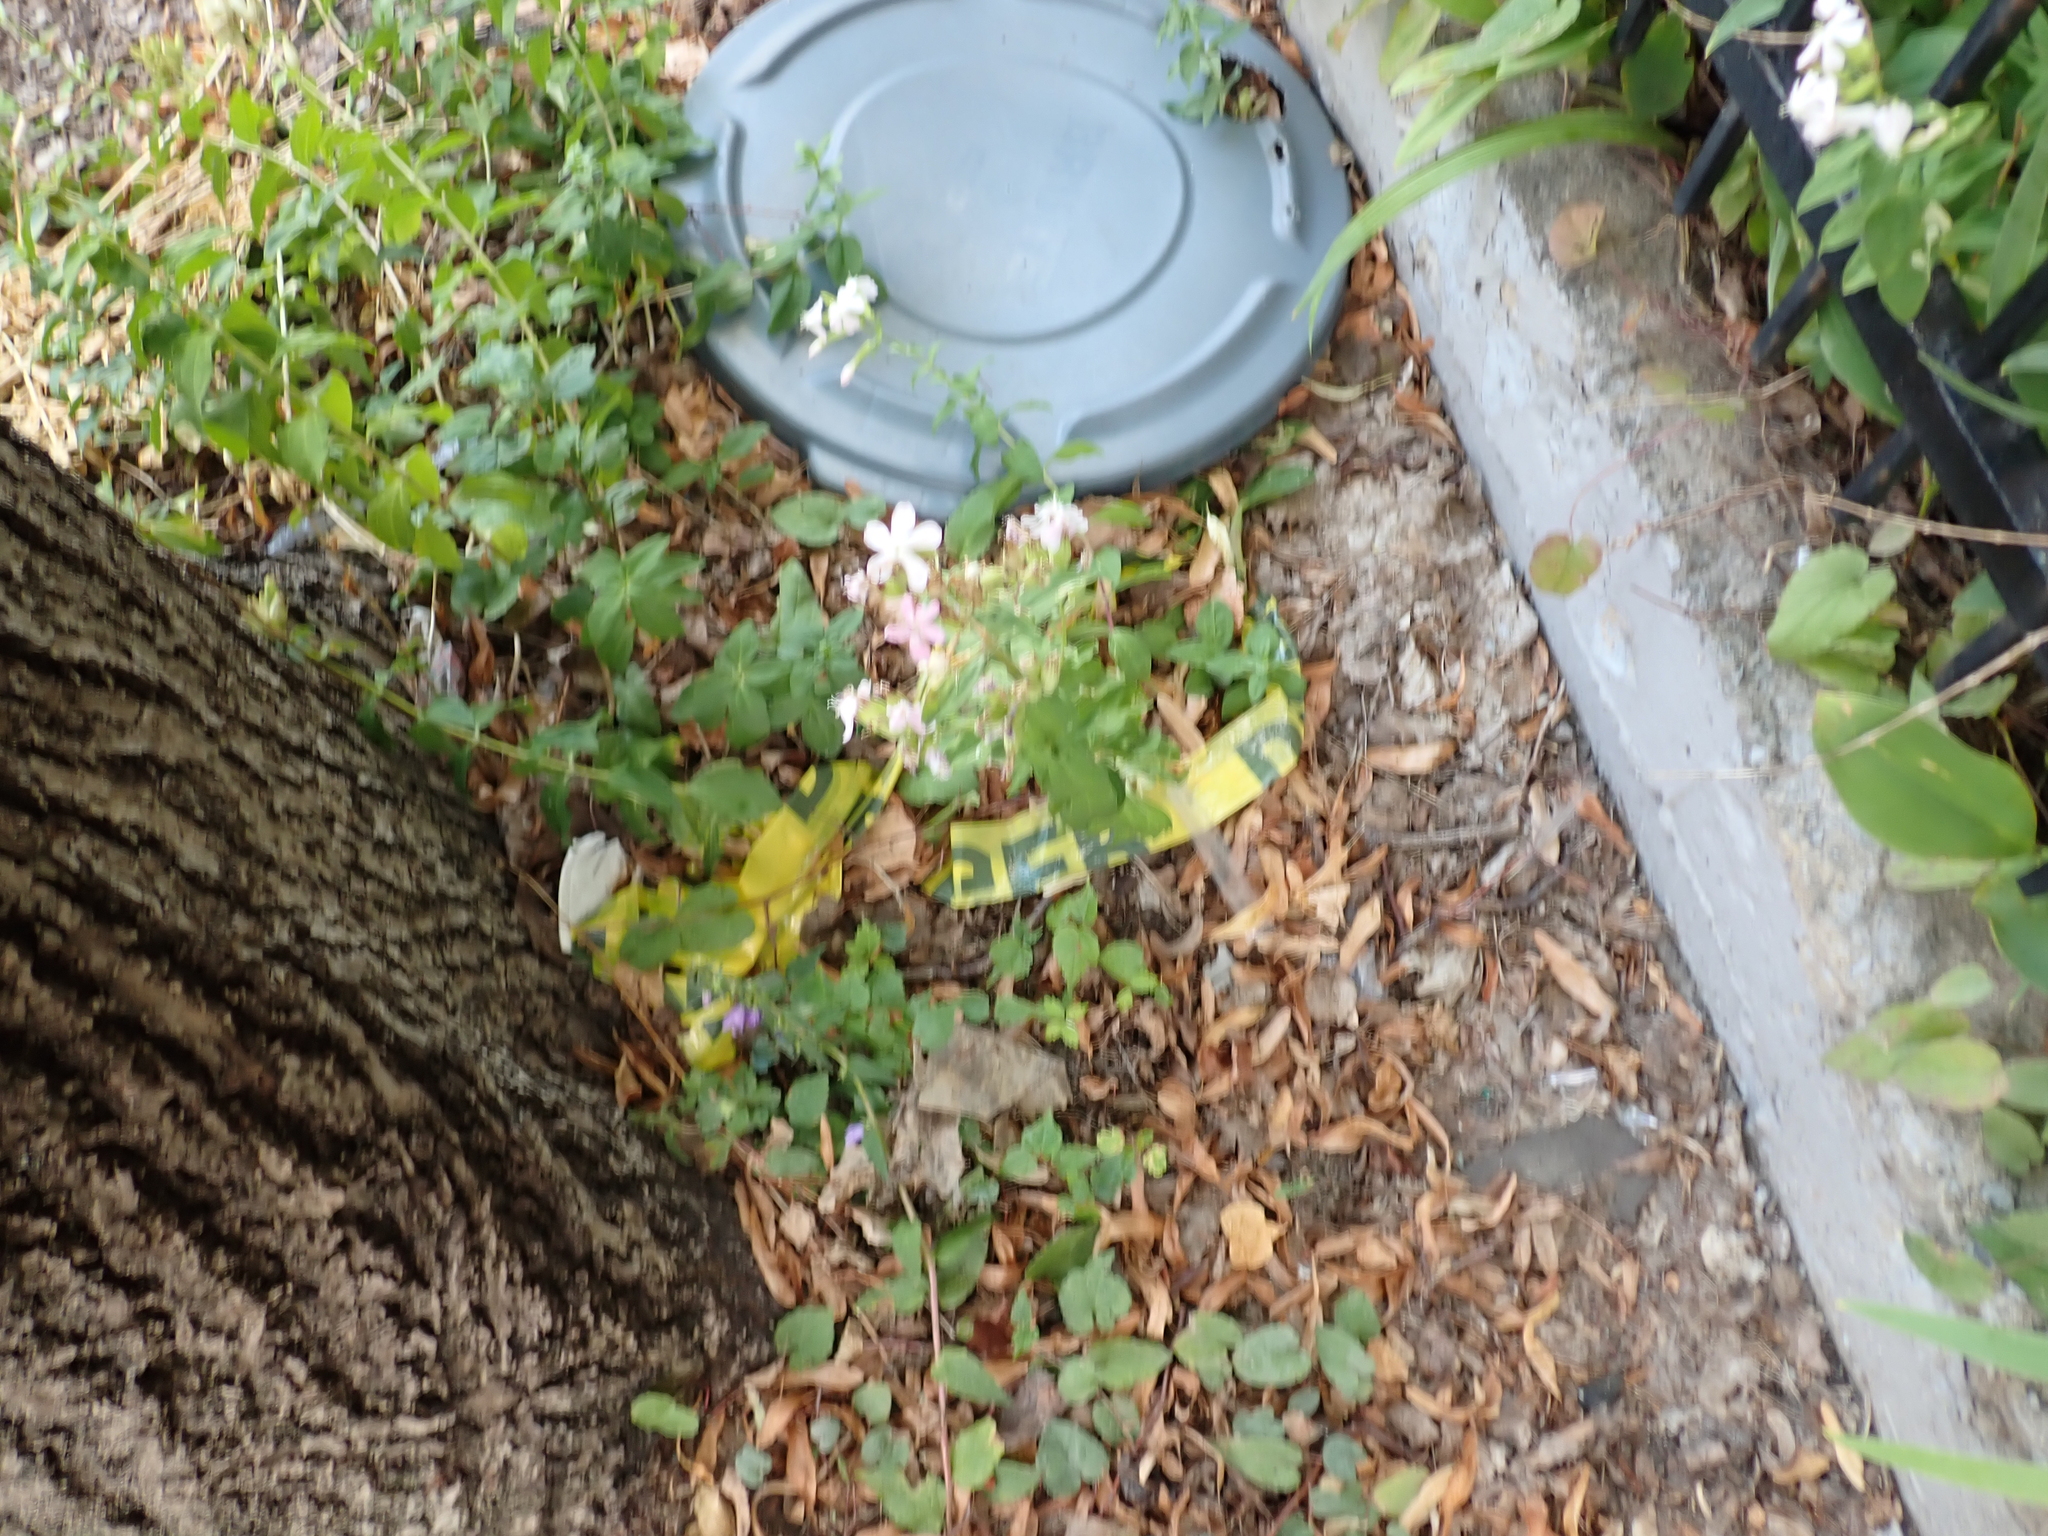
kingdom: Plantae
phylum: Tracheophyta
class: Magnoliopsida
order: Caryophyllales
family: Caryophyllaceae
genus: Saponaria
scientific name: Saponaria officinalis
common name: Soapwort
